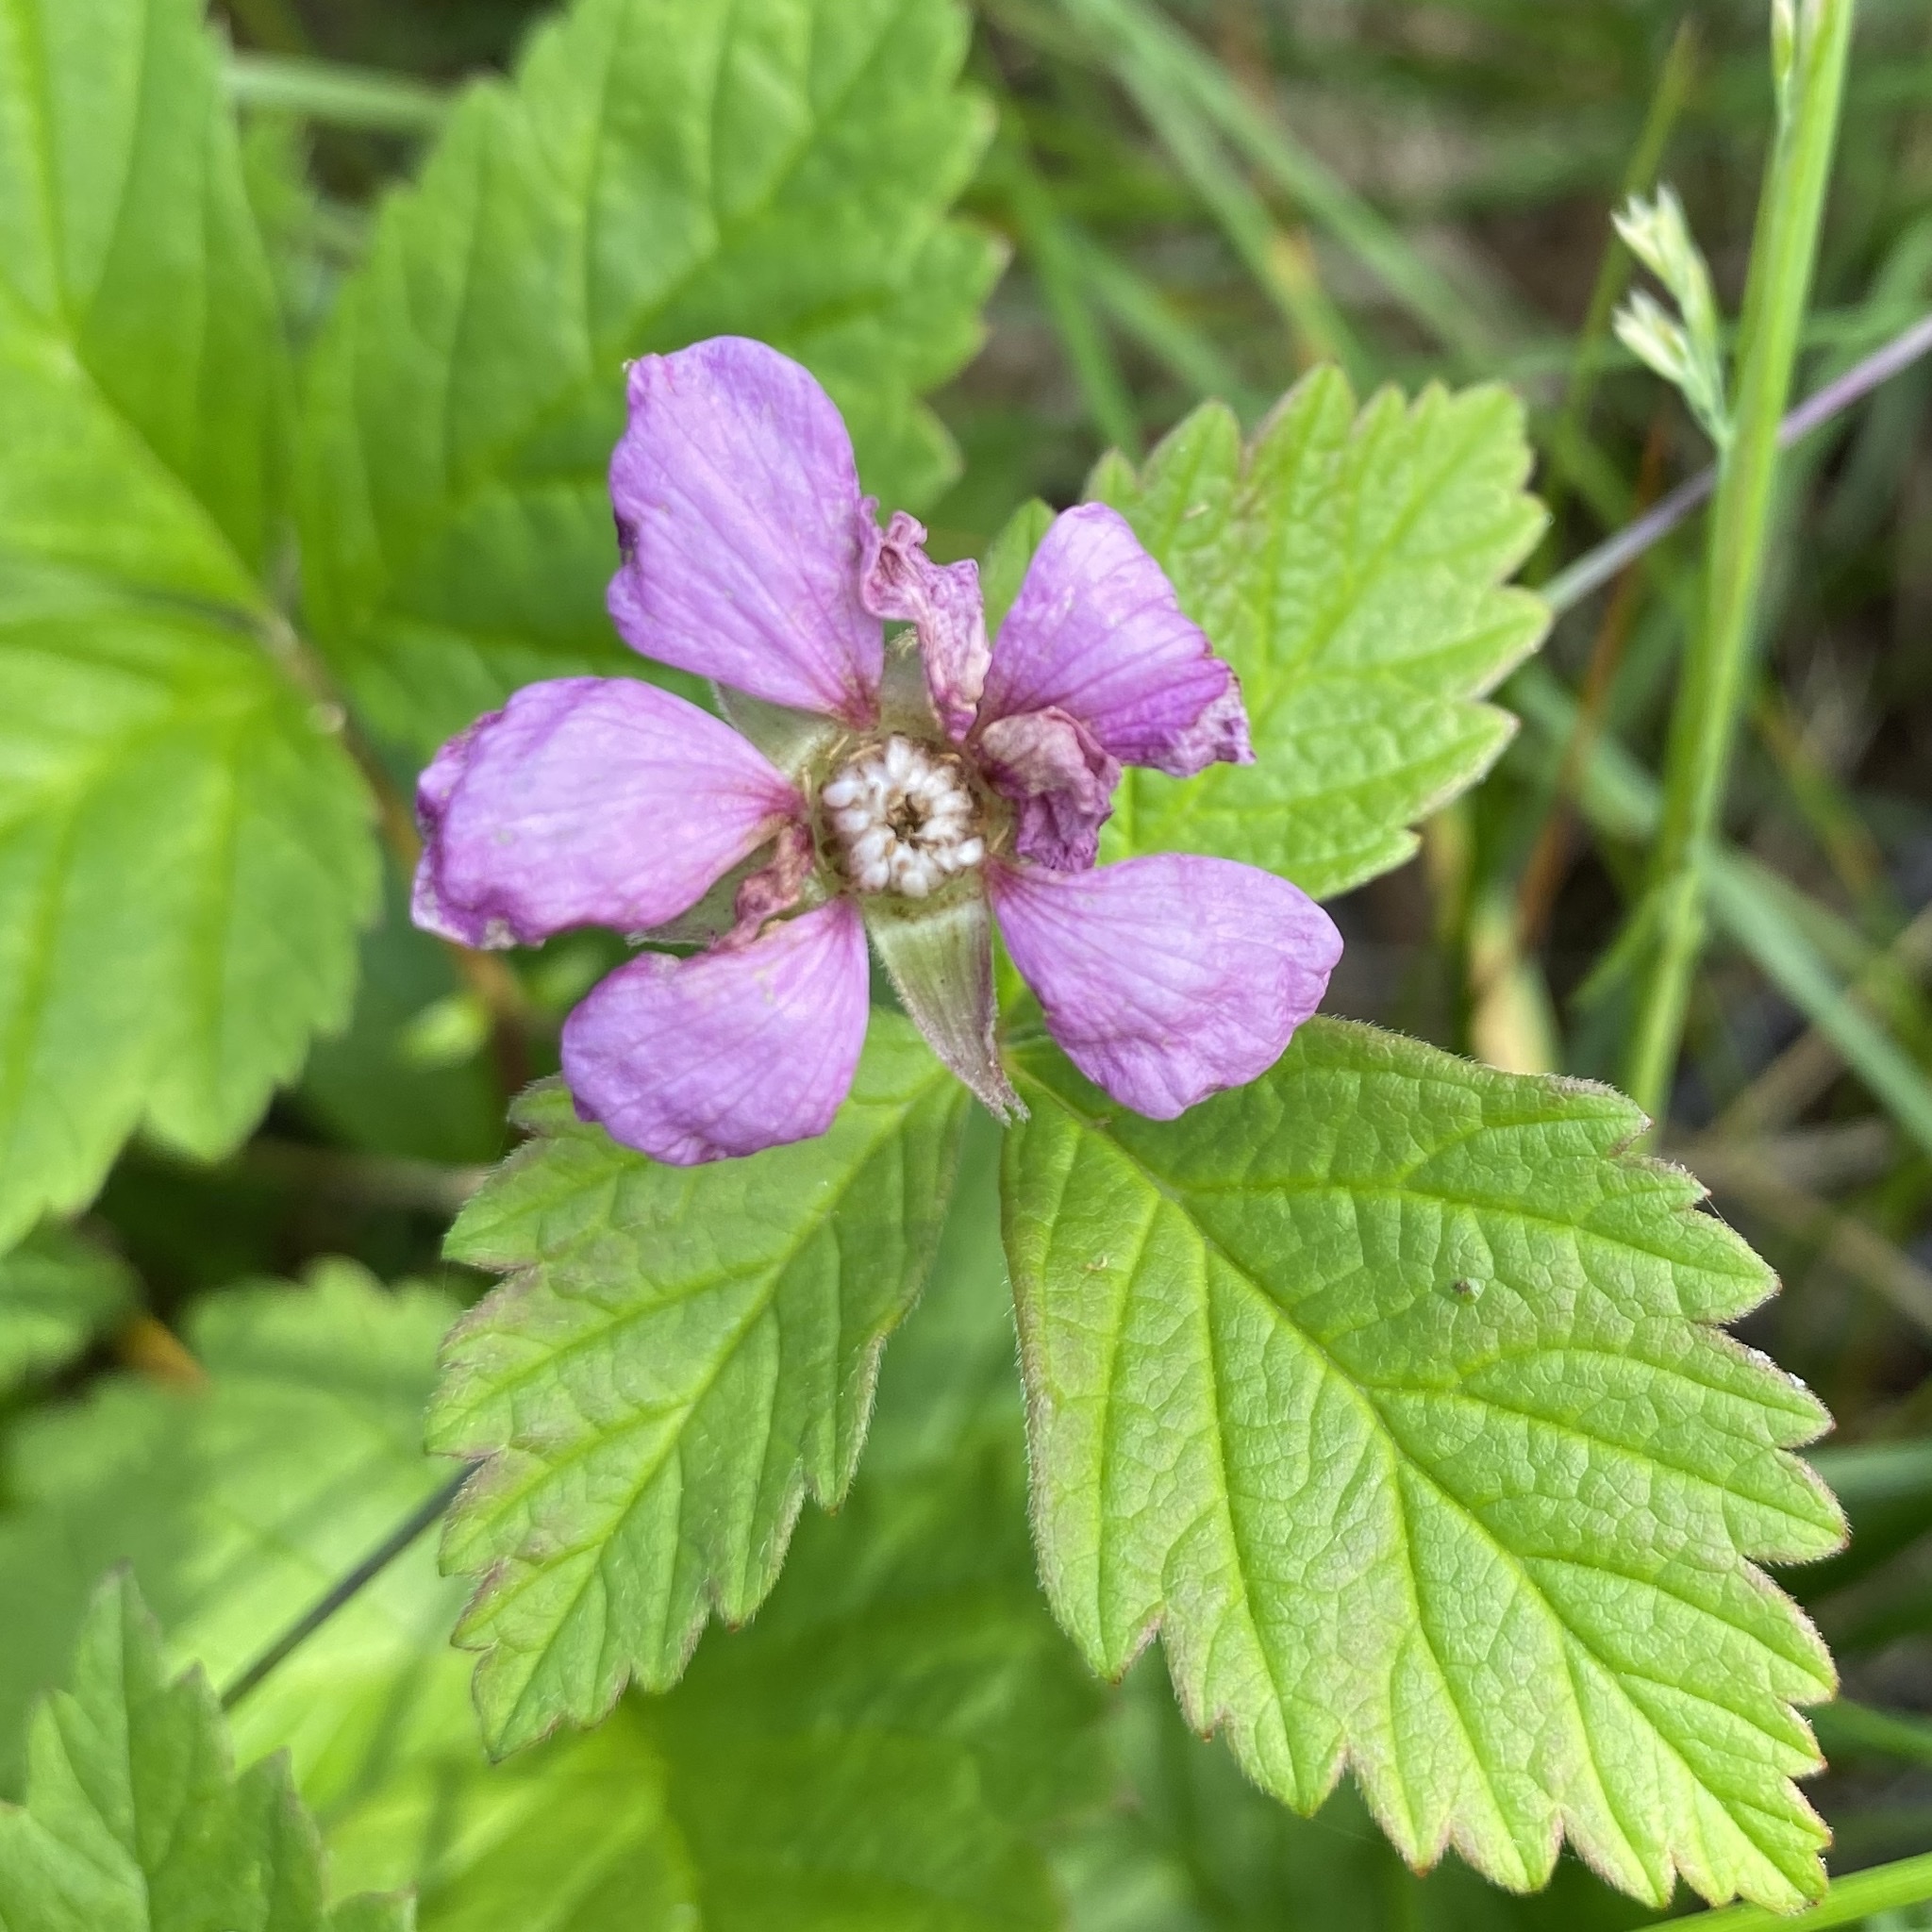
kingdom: Plantae
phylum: Tracheophyta
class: Magnoliopsida
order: Rosales
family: Rosaceae
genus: Rubus
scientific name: Rubus arcticus
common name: Arctic bramble
